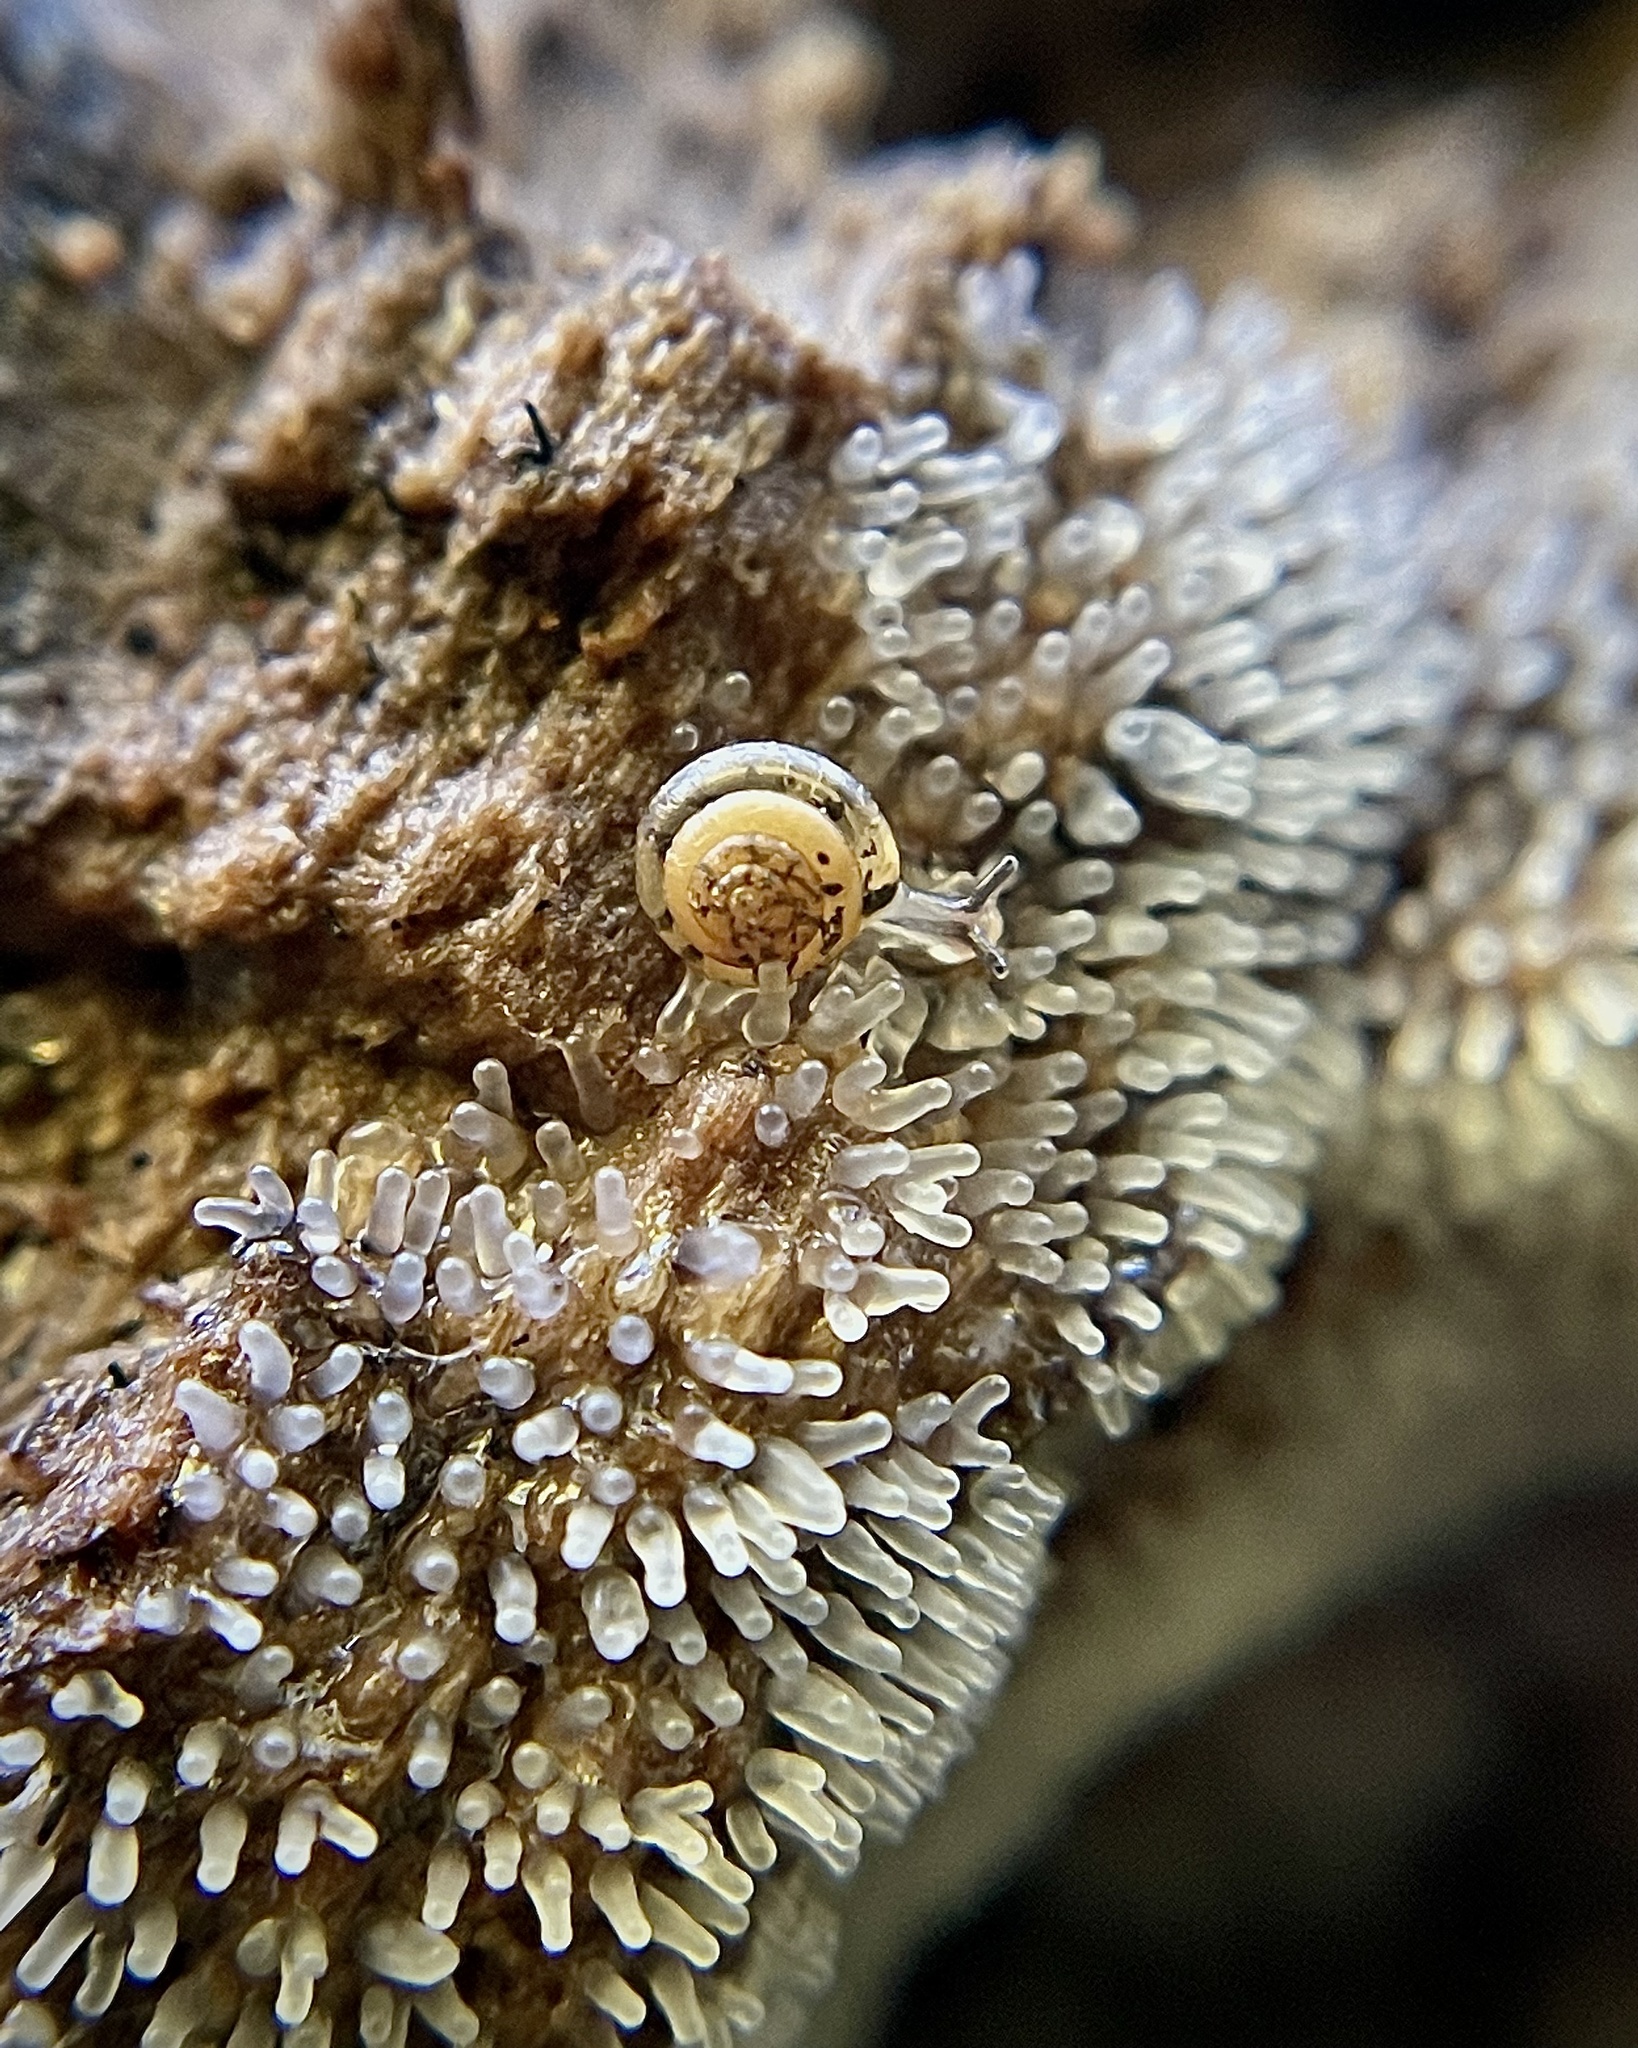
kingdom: Protozoa
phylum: Mycetozoa
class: Protosteliomycetes
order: Ceratiomyxales
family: Ceratiomyxaceae
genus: Ceratiomyxa
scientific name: Ceratiomyxa fruticulosa
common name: Honeycomb coral slime mold
